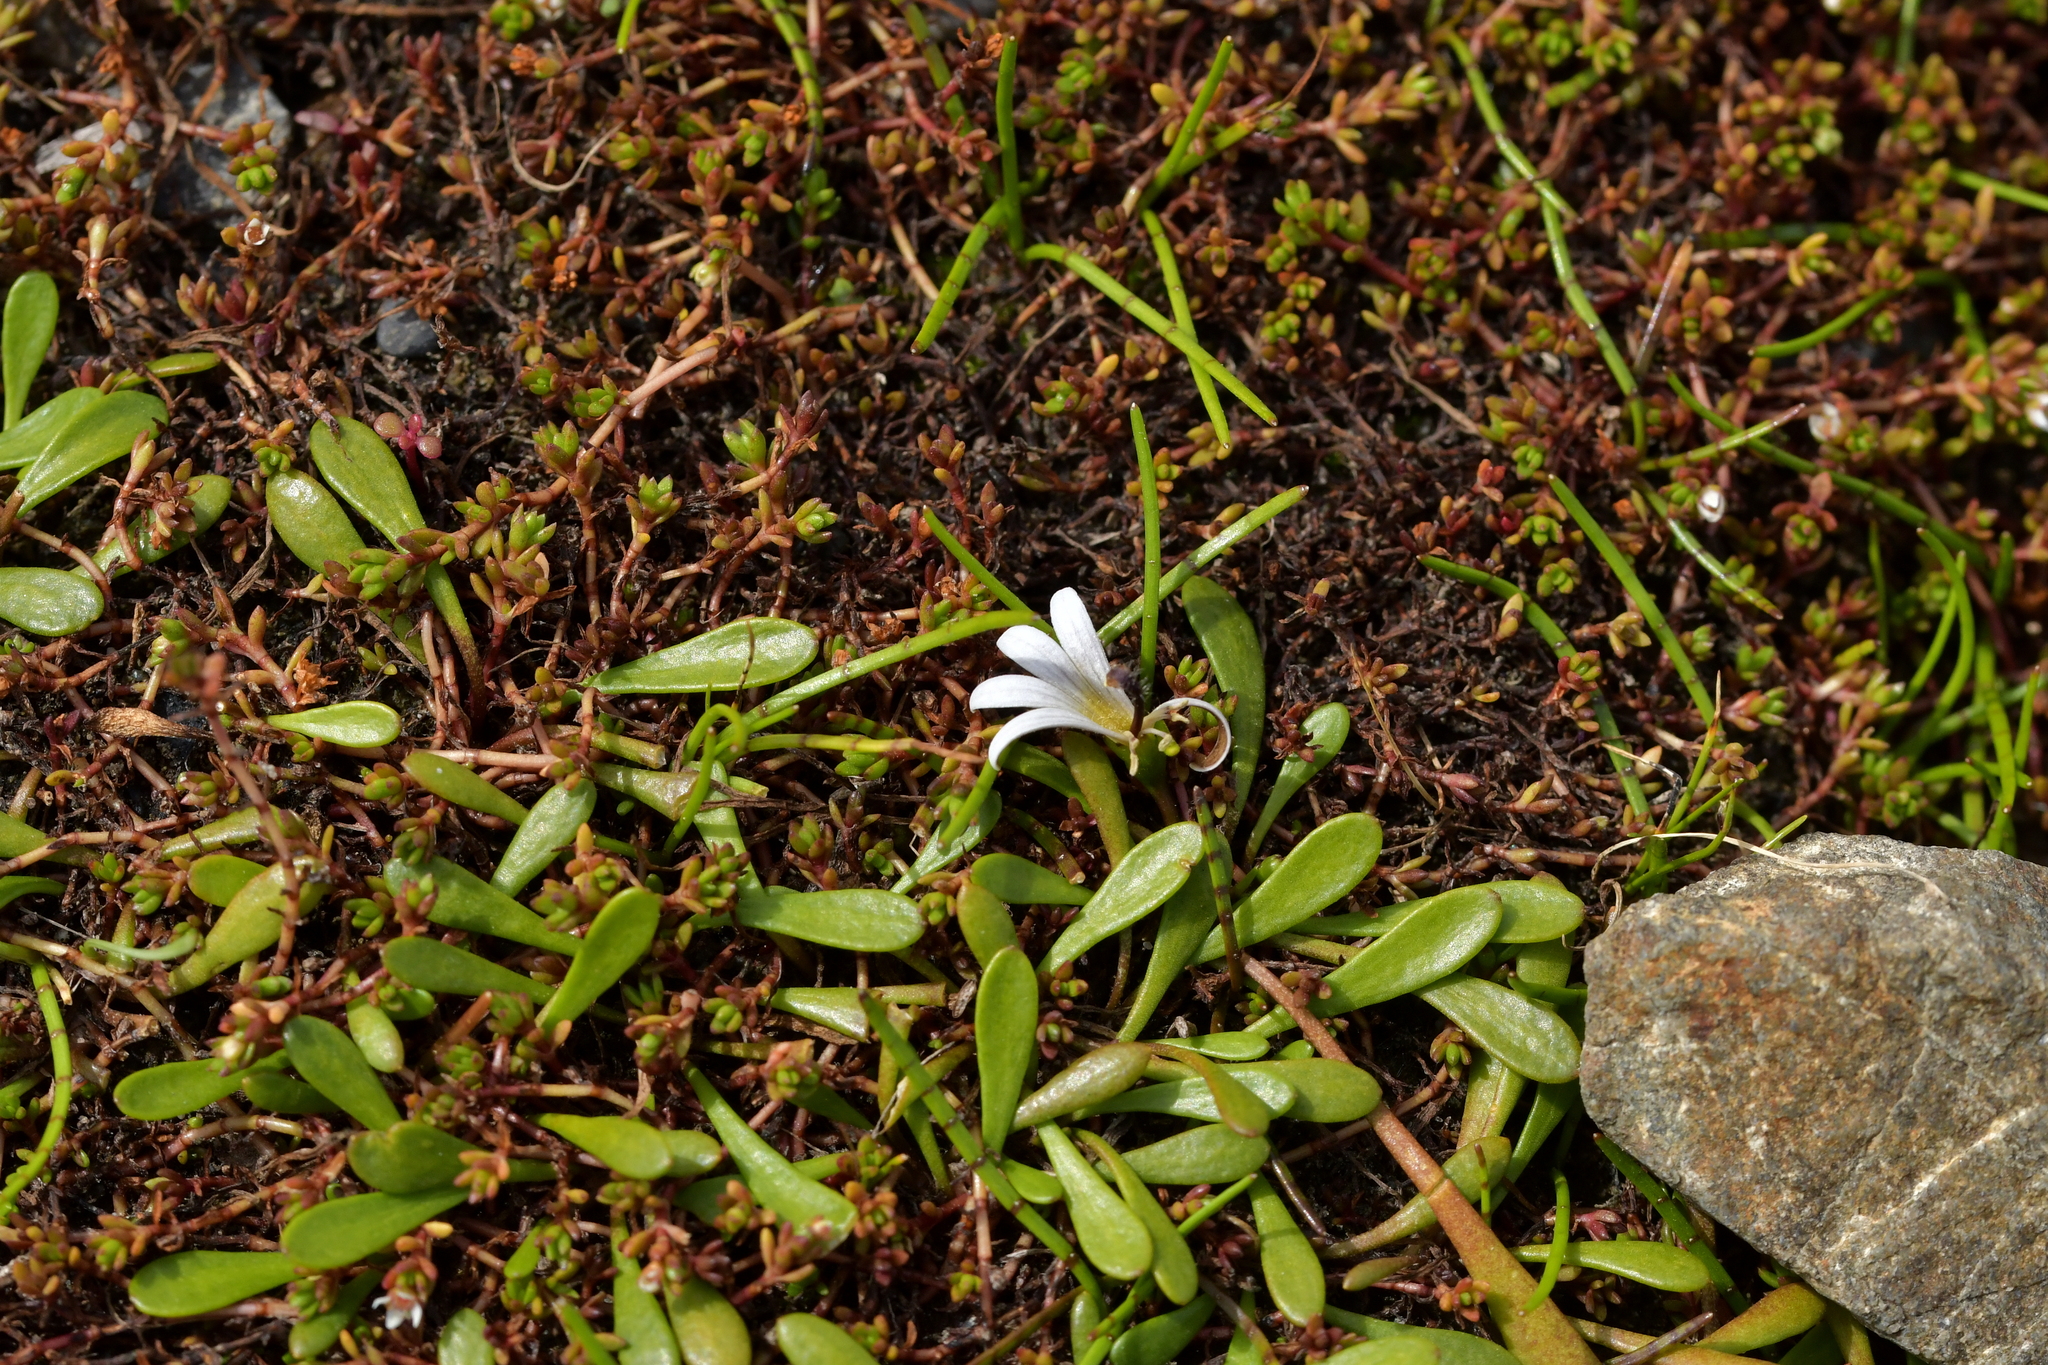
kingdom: Plantae
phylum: Tracheophyta
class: Magnoliopsida
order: Asterales
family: Goodeniaceae
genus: Goodenia
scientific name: Goodenia radicans
